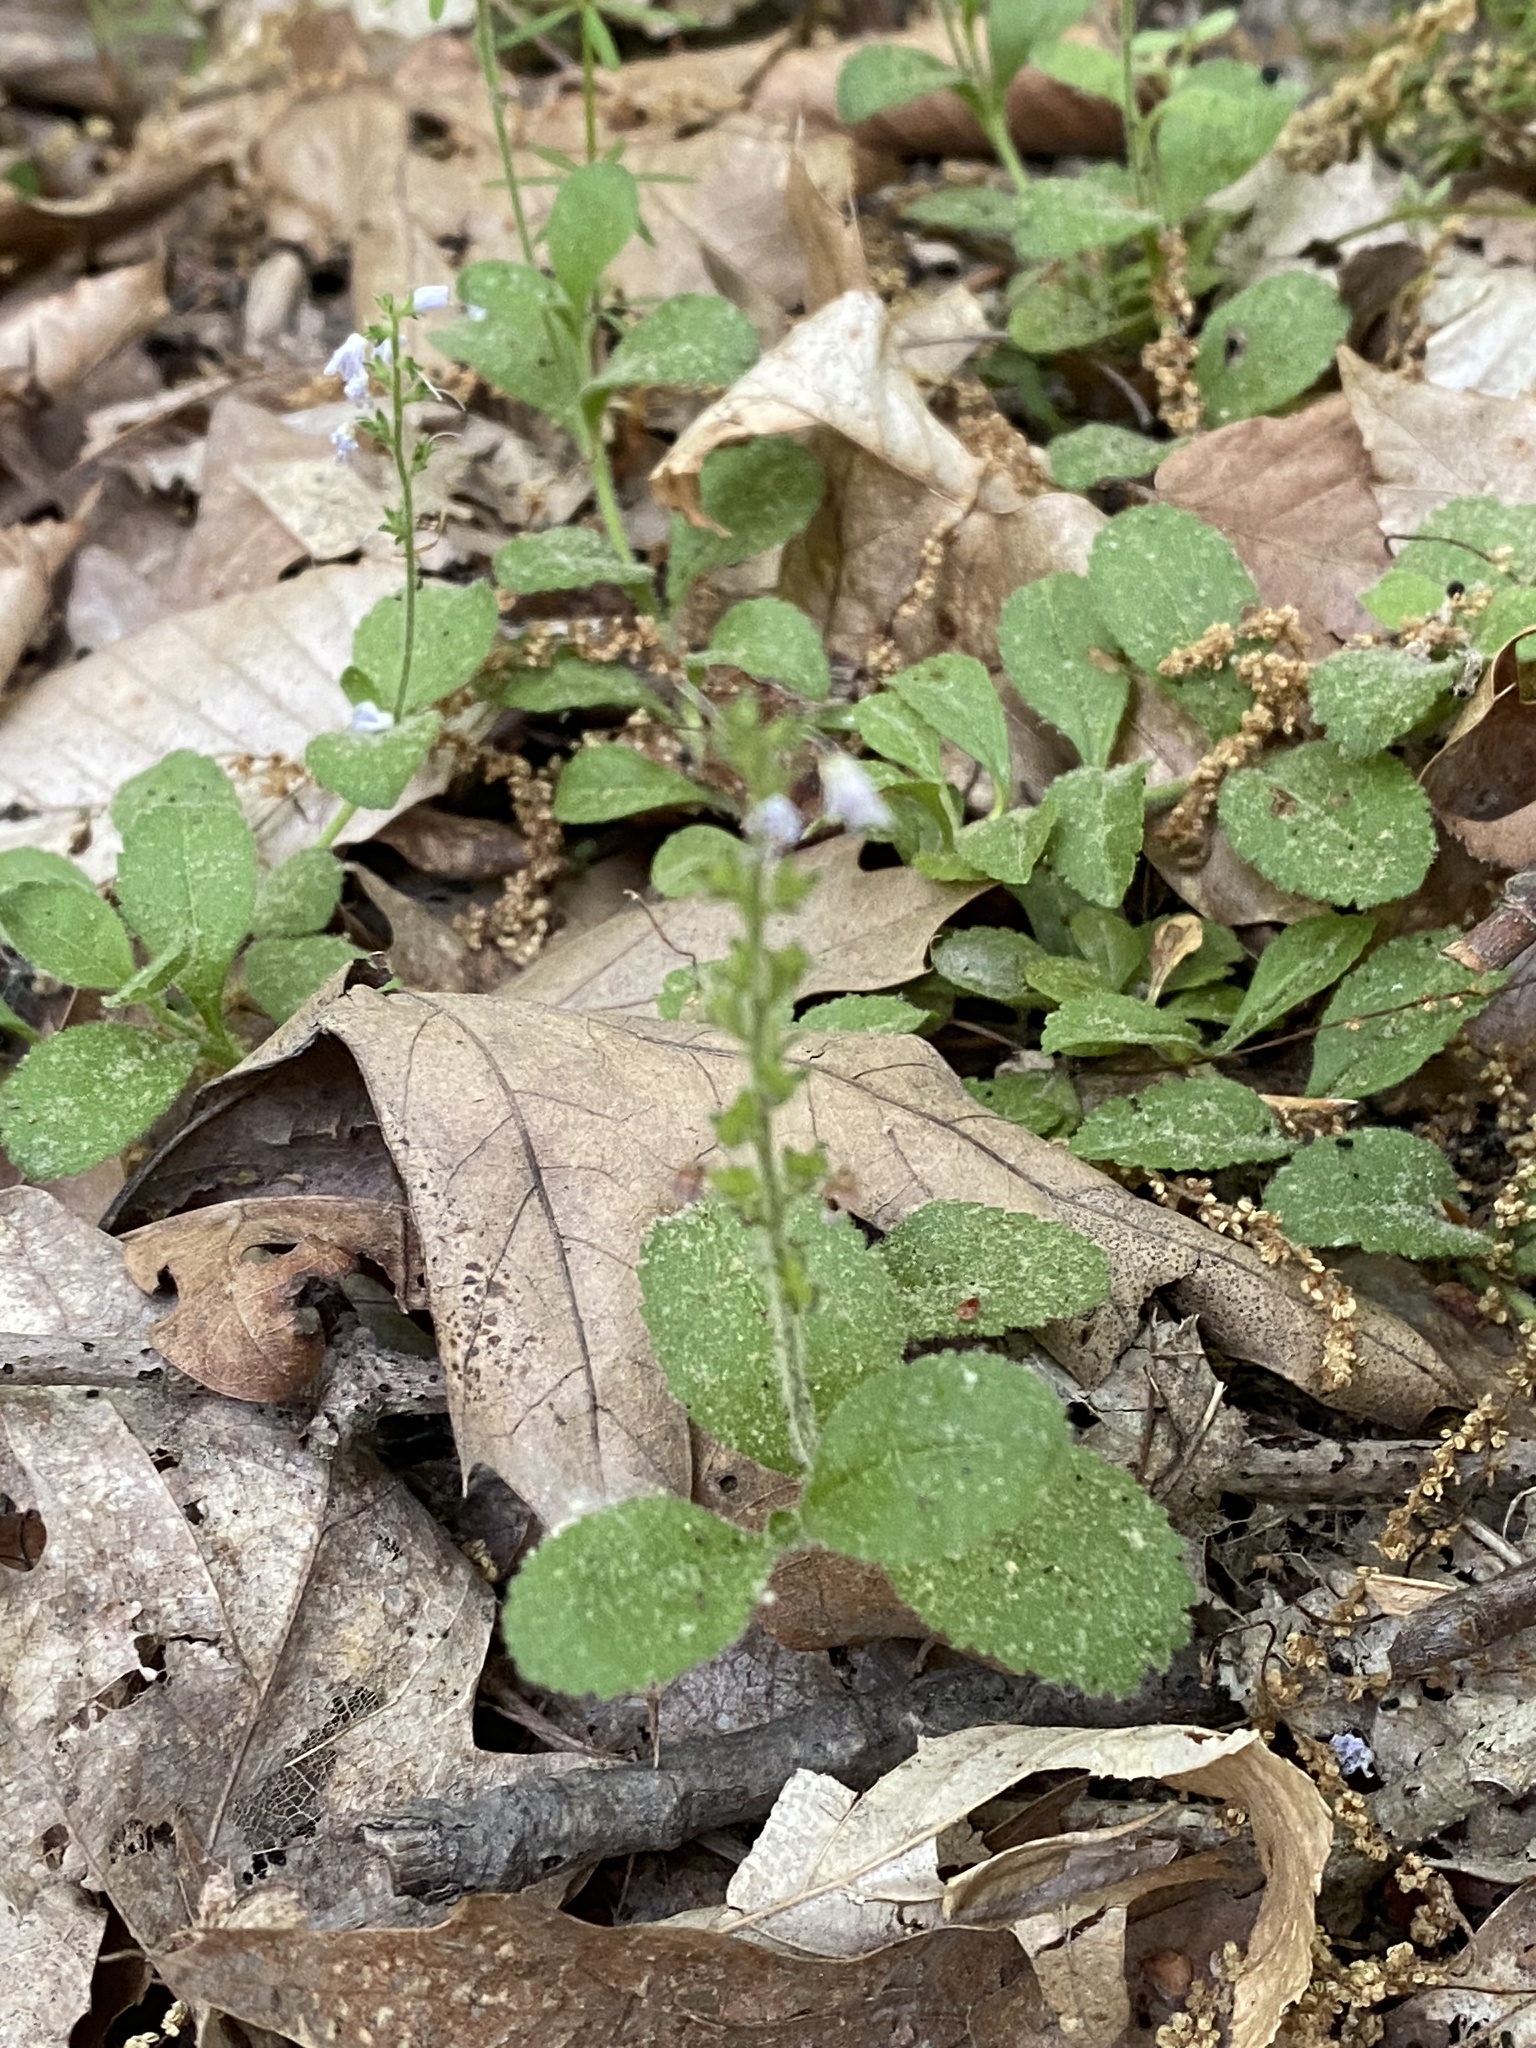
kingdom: Plantae
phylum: Tracheophyta
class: Magnoliopsida
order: Lamiales
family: Plantaginaceae
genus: Veronica
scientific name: Veronica officinalis
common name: Common speedwell
